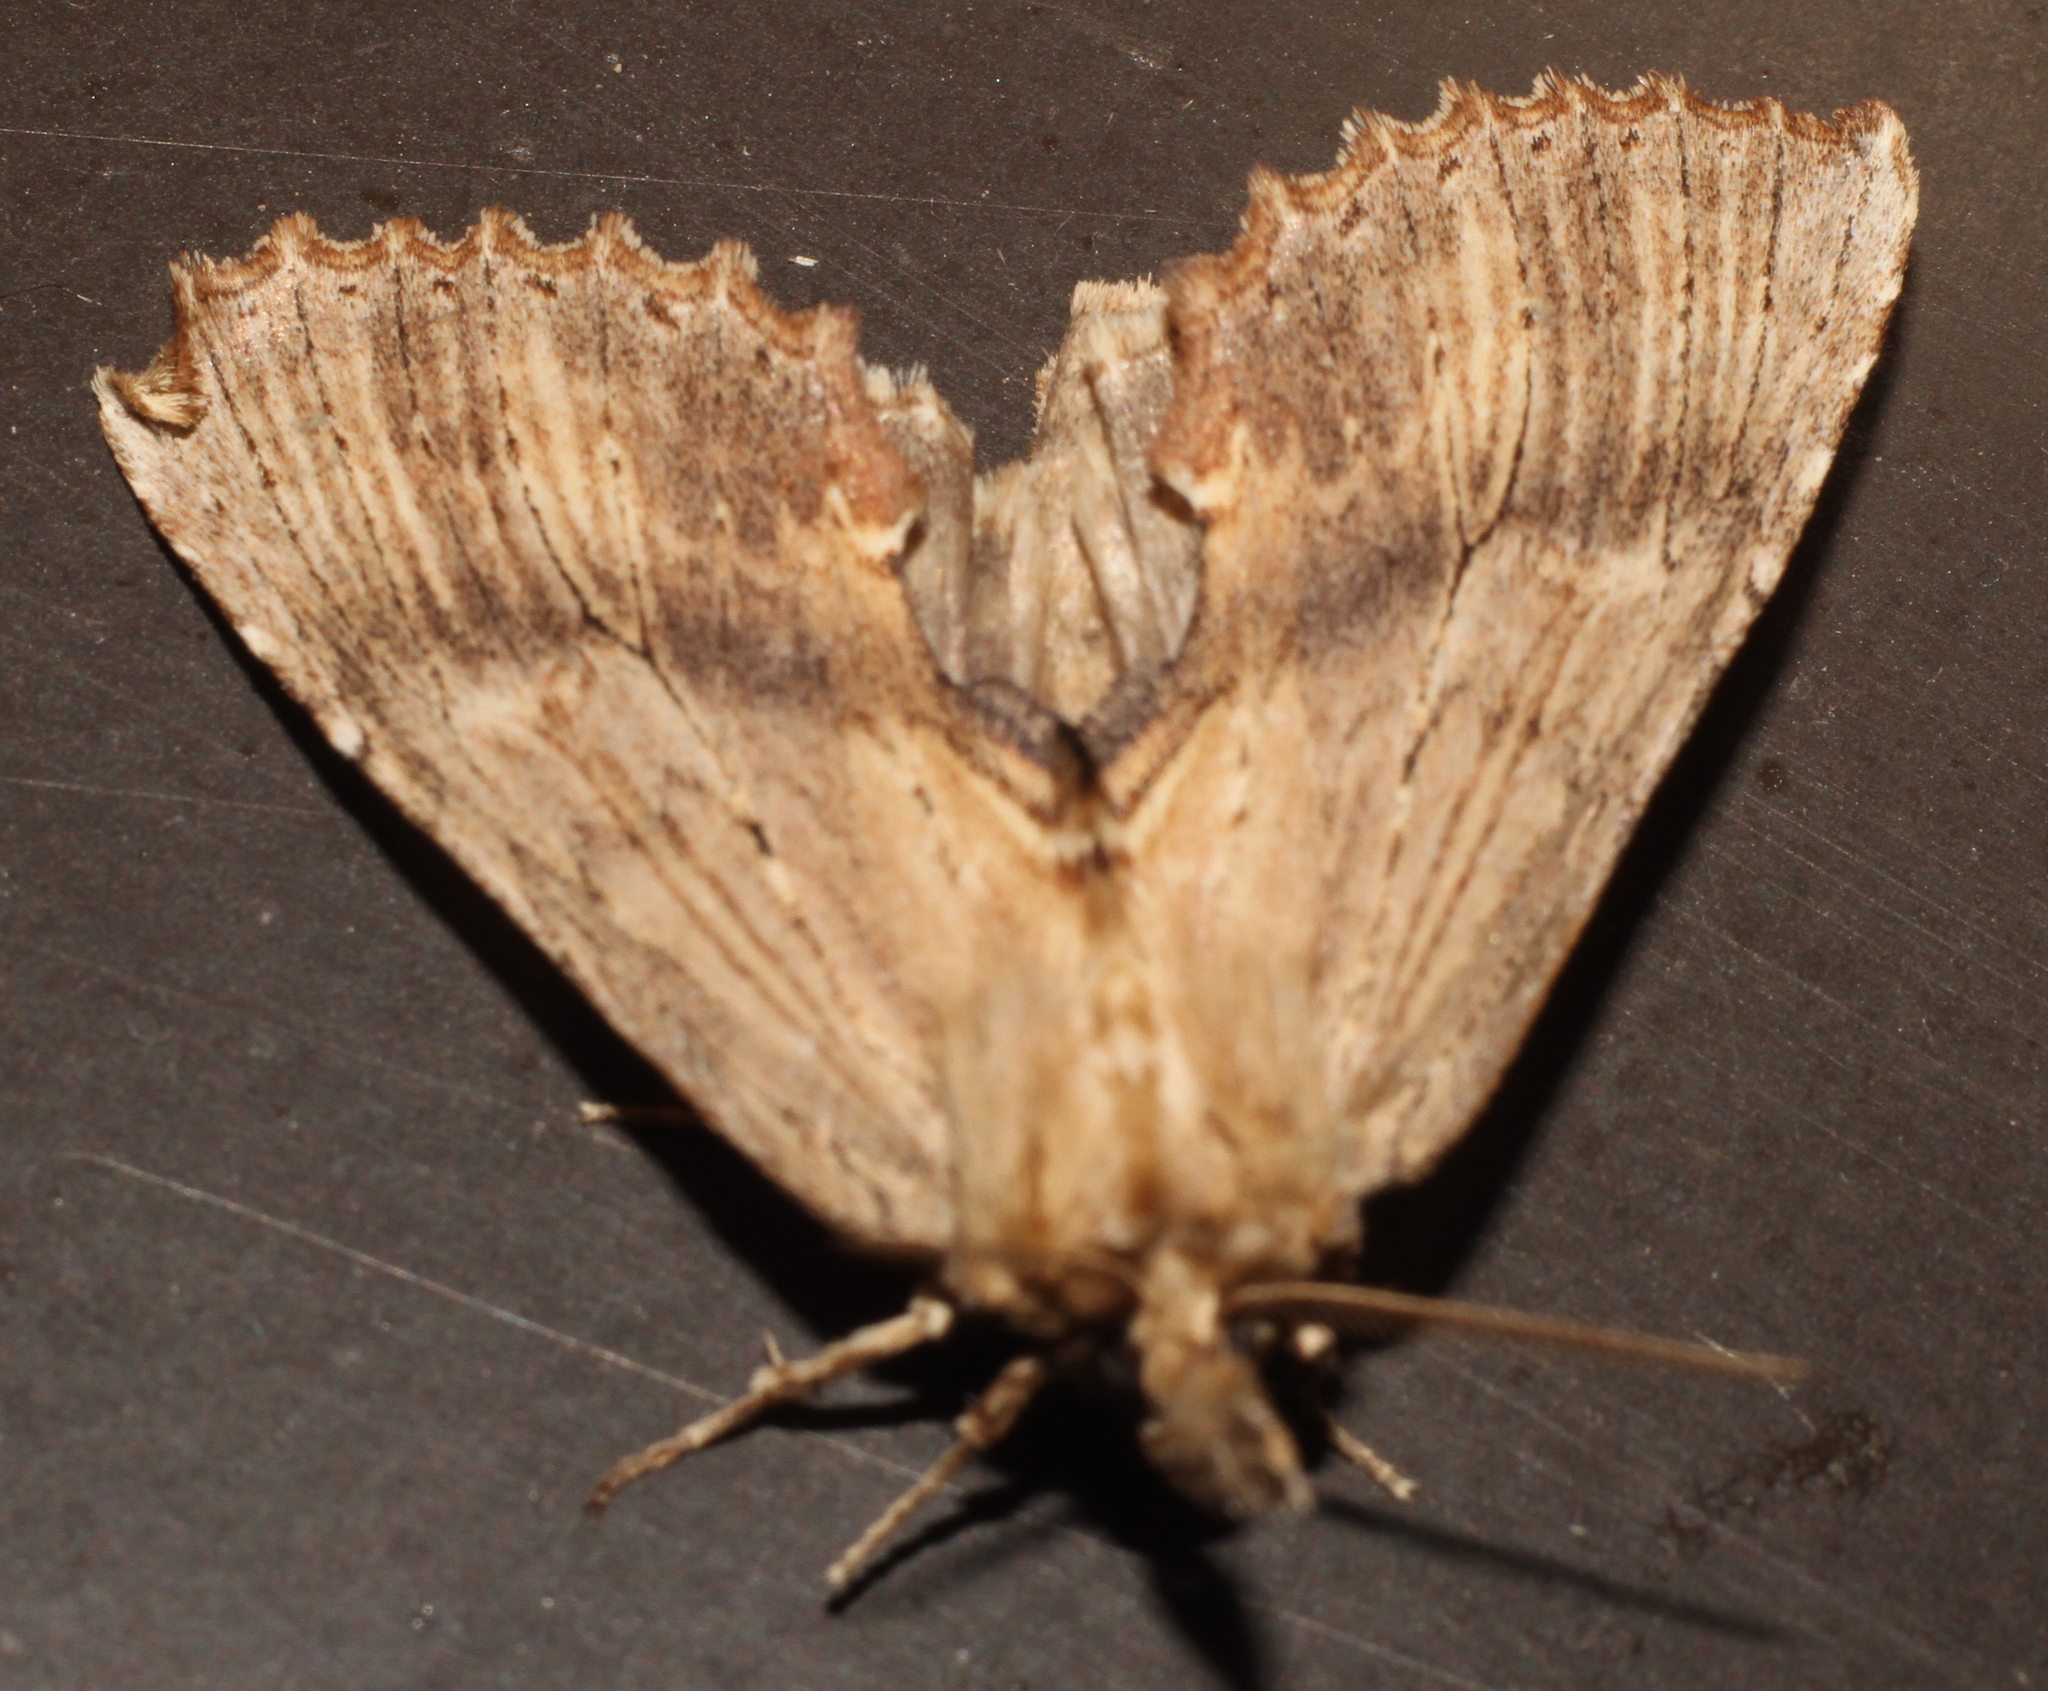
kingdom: Animalia
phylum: Arthropoda
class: Insecta
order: Lepidoptera
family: Notodontidae
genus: Pterostoma
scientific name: Pterostoma palpina
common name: Pale prominent
